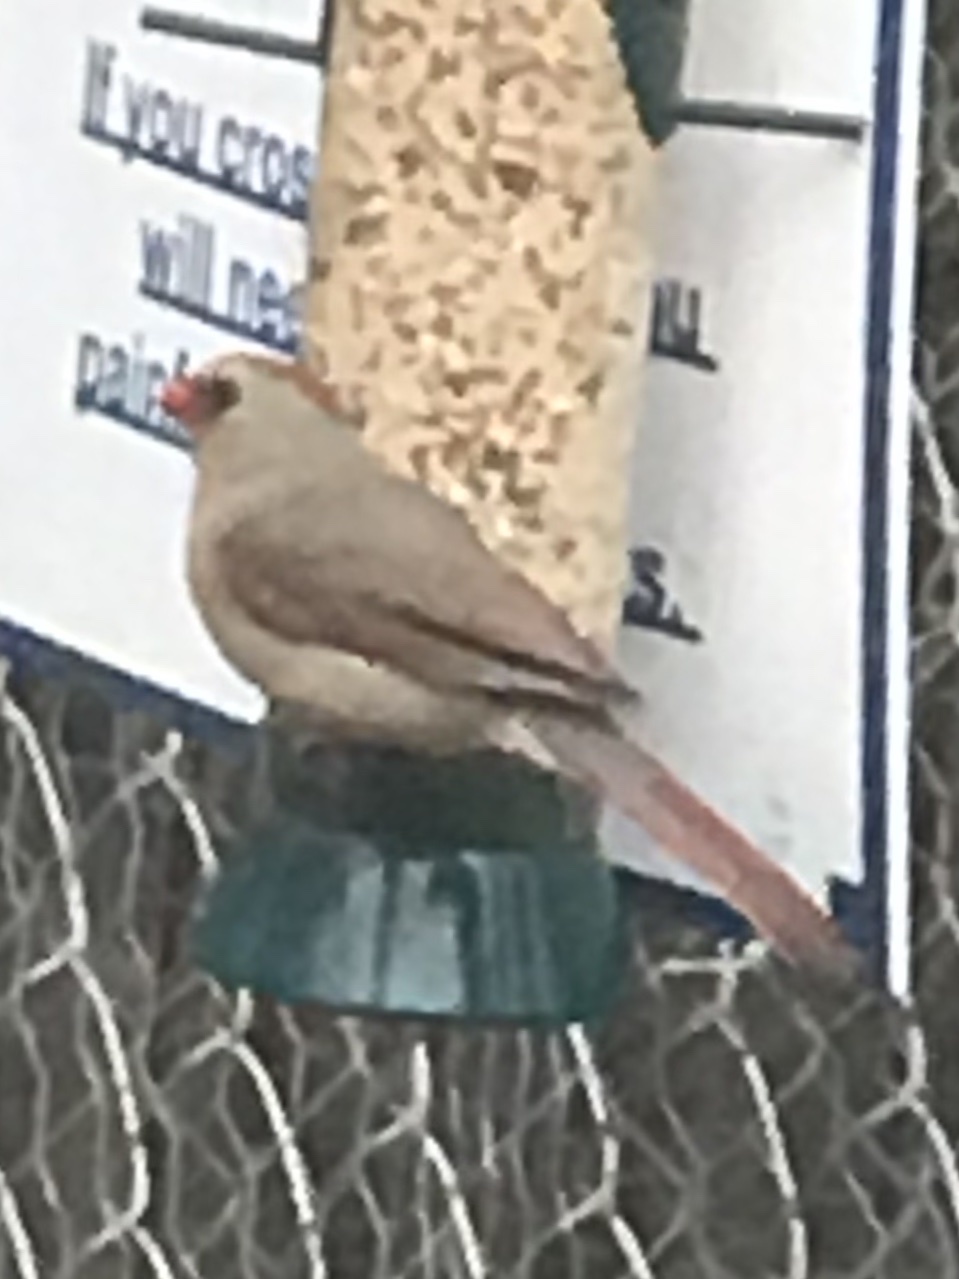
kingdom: Animalia
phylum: Chordata
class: Aves
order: Passeriformes
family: Cardinalidae
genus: Cardinalis
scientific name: Cardinalis cardinalis
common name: Northern cardinal
